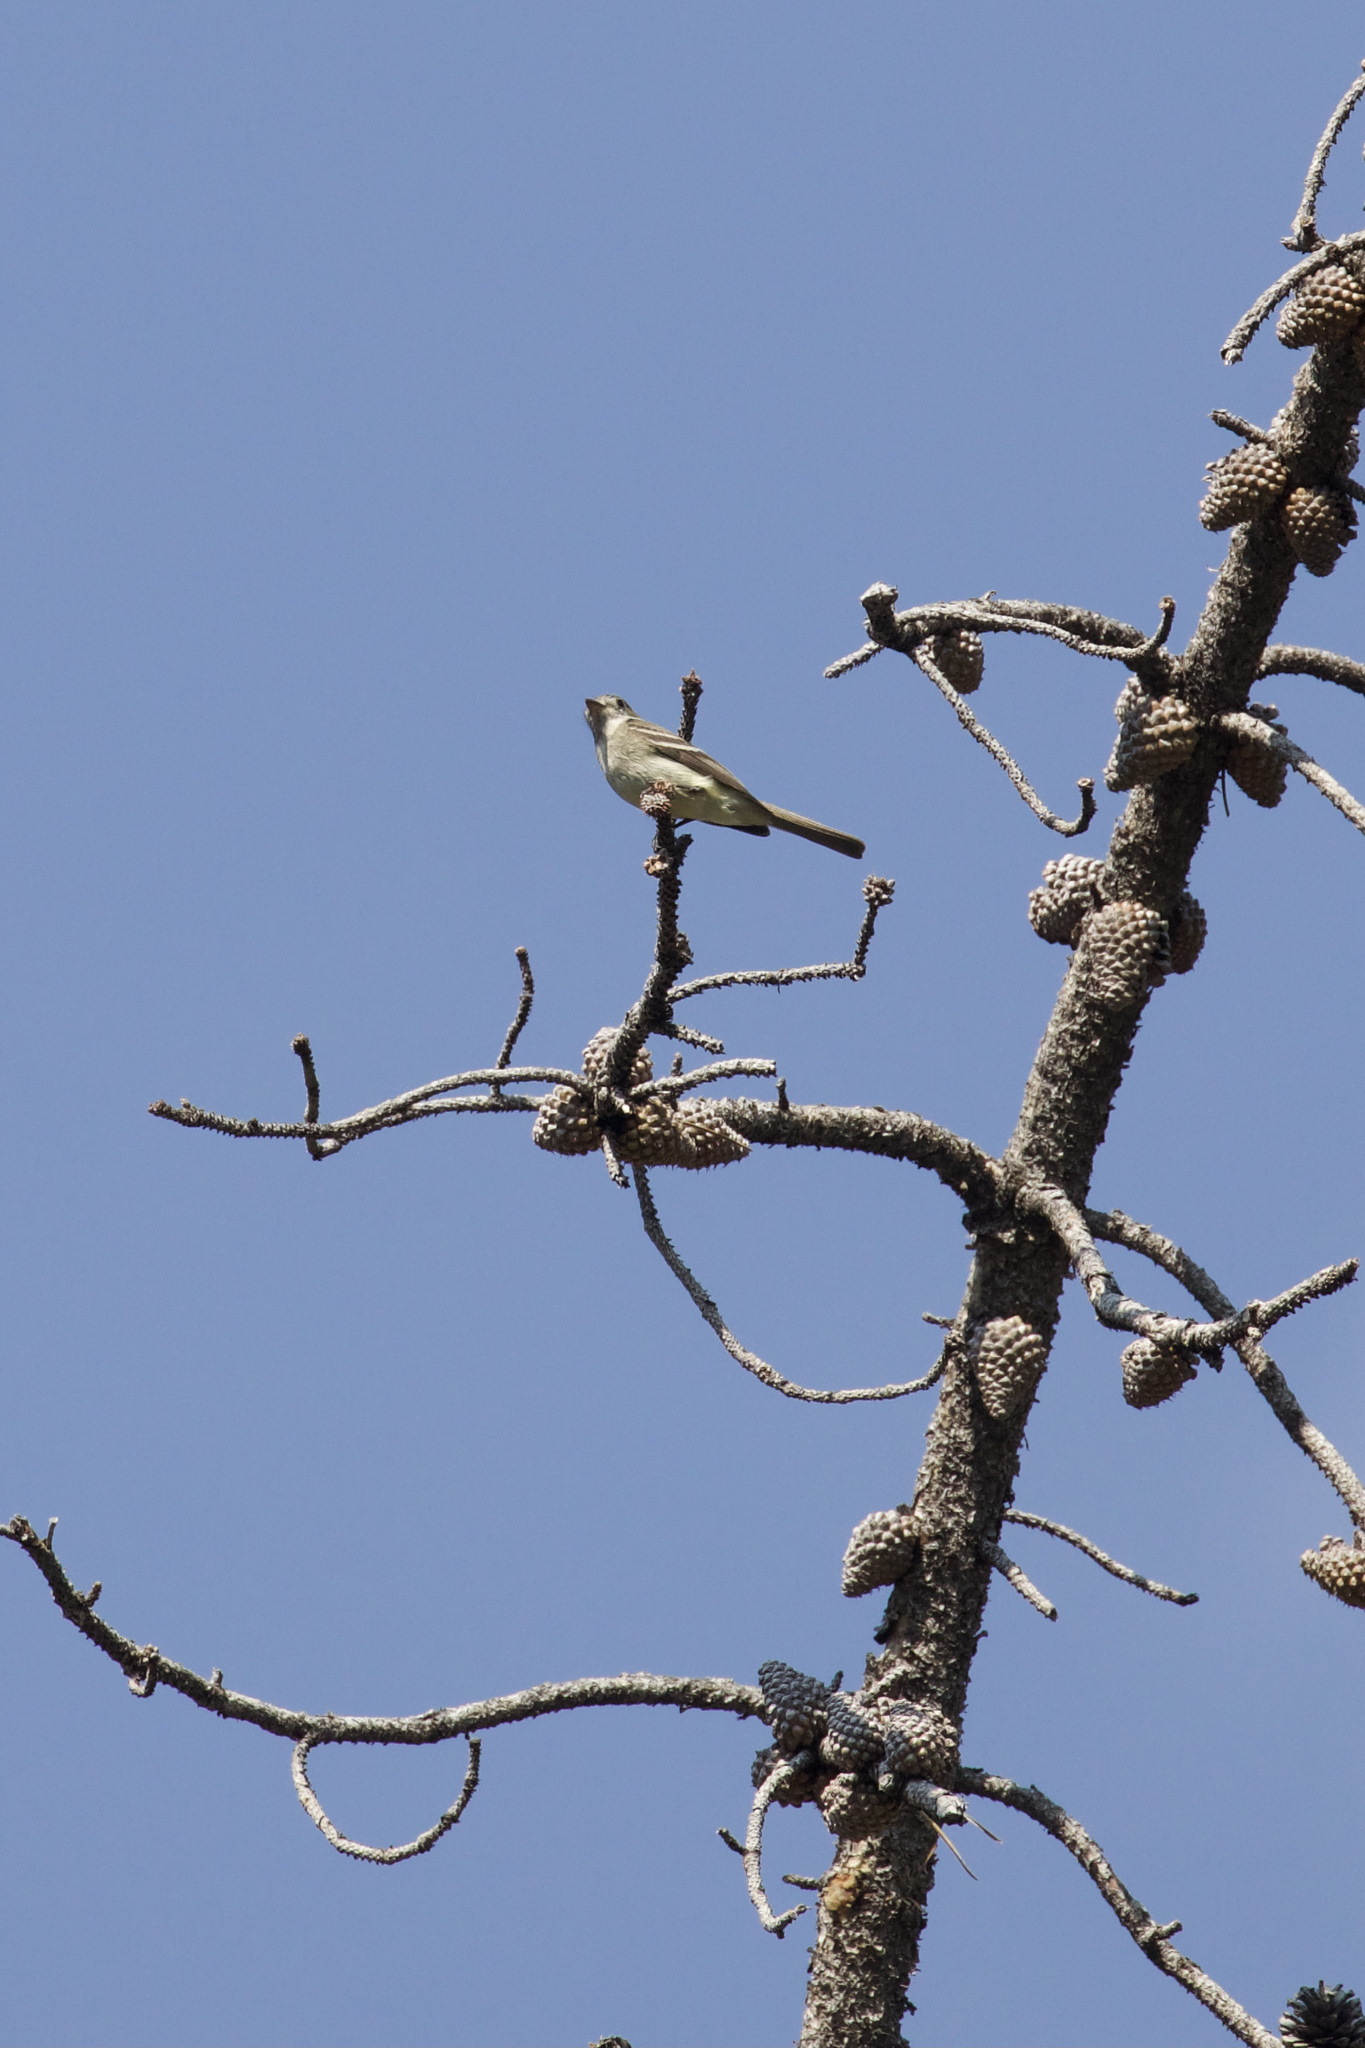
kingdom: Animalia
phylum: Chordata
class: Aves
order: Passeriformes
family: Tyrannidae
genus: Empidonax
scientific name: Empidonax oberholseri
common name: Dusky flycatcher
